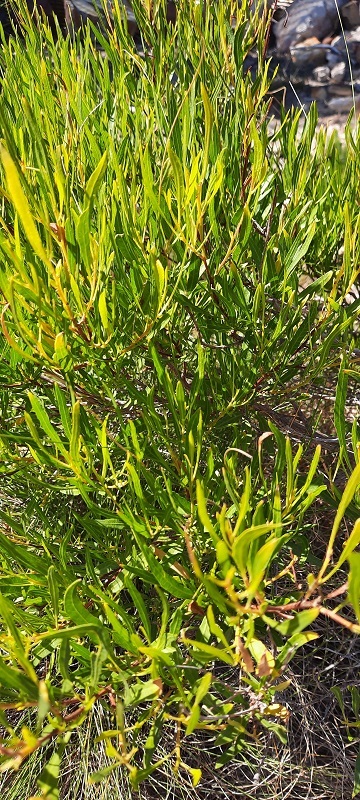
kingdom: Plantae
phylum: Tracheophyta
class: Magnoliopsida
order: Sapindales
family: Sapindaceae
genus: Dodonaea
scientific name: Dodonaea viscosa
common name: Hopbush
